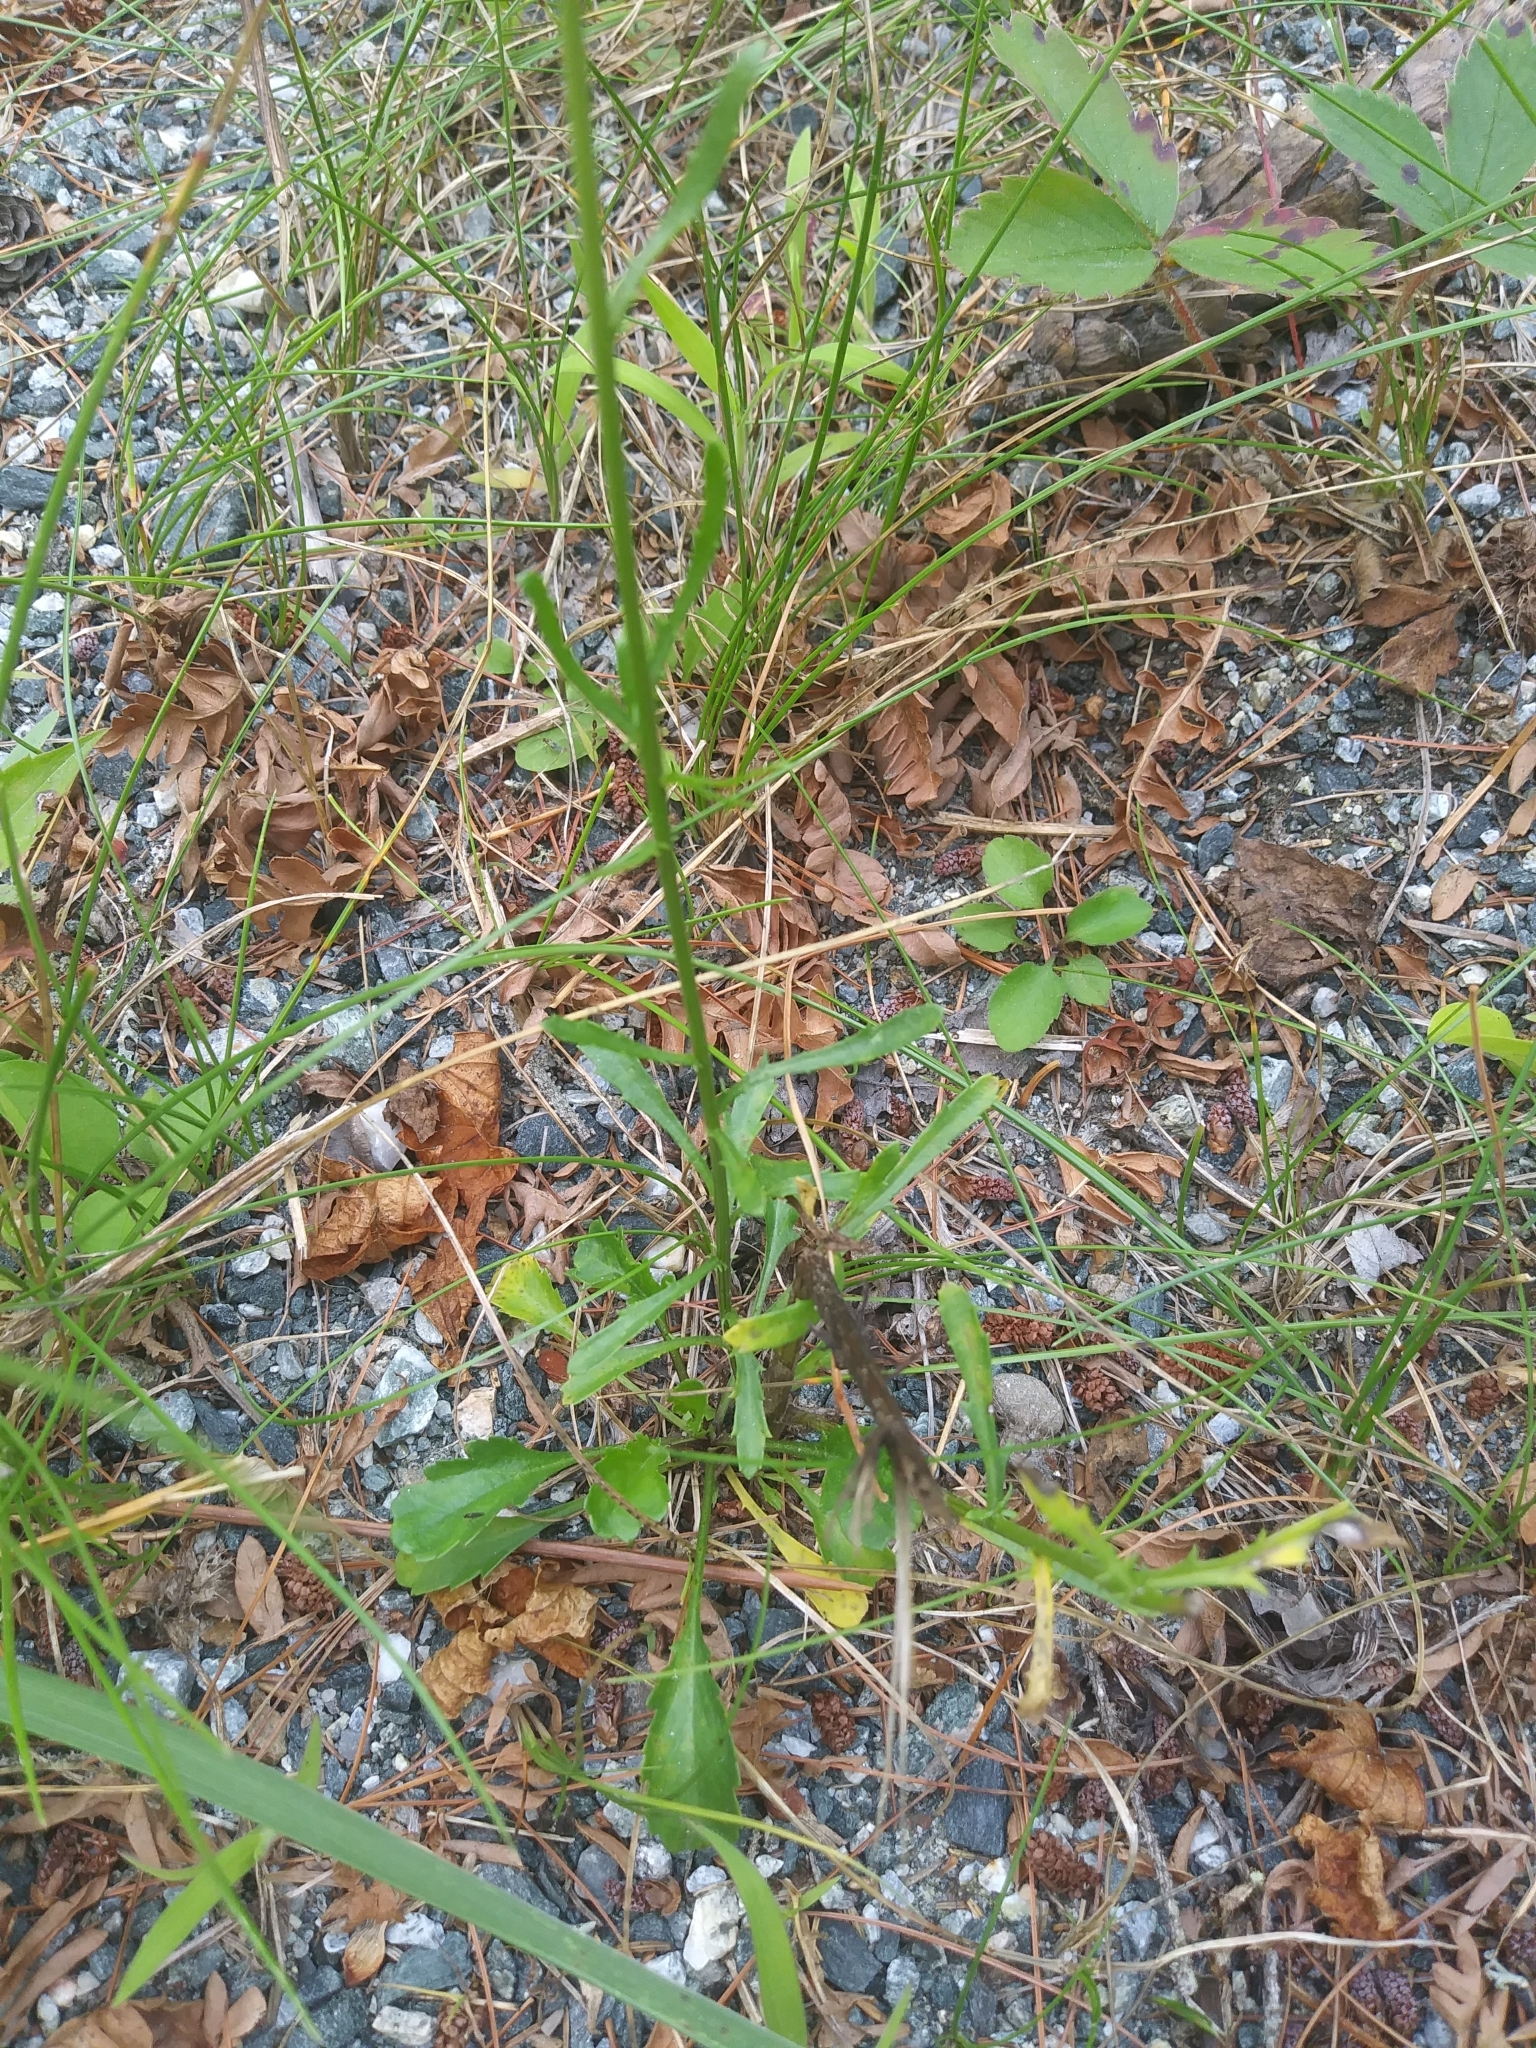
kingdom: Plantae
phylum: Tracheophyta
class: Magnoliopsida
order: Asterales
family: Asteraceae
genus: Leucanthemum
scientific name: Leucanthemum vulgare
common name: Oxeye daisy
